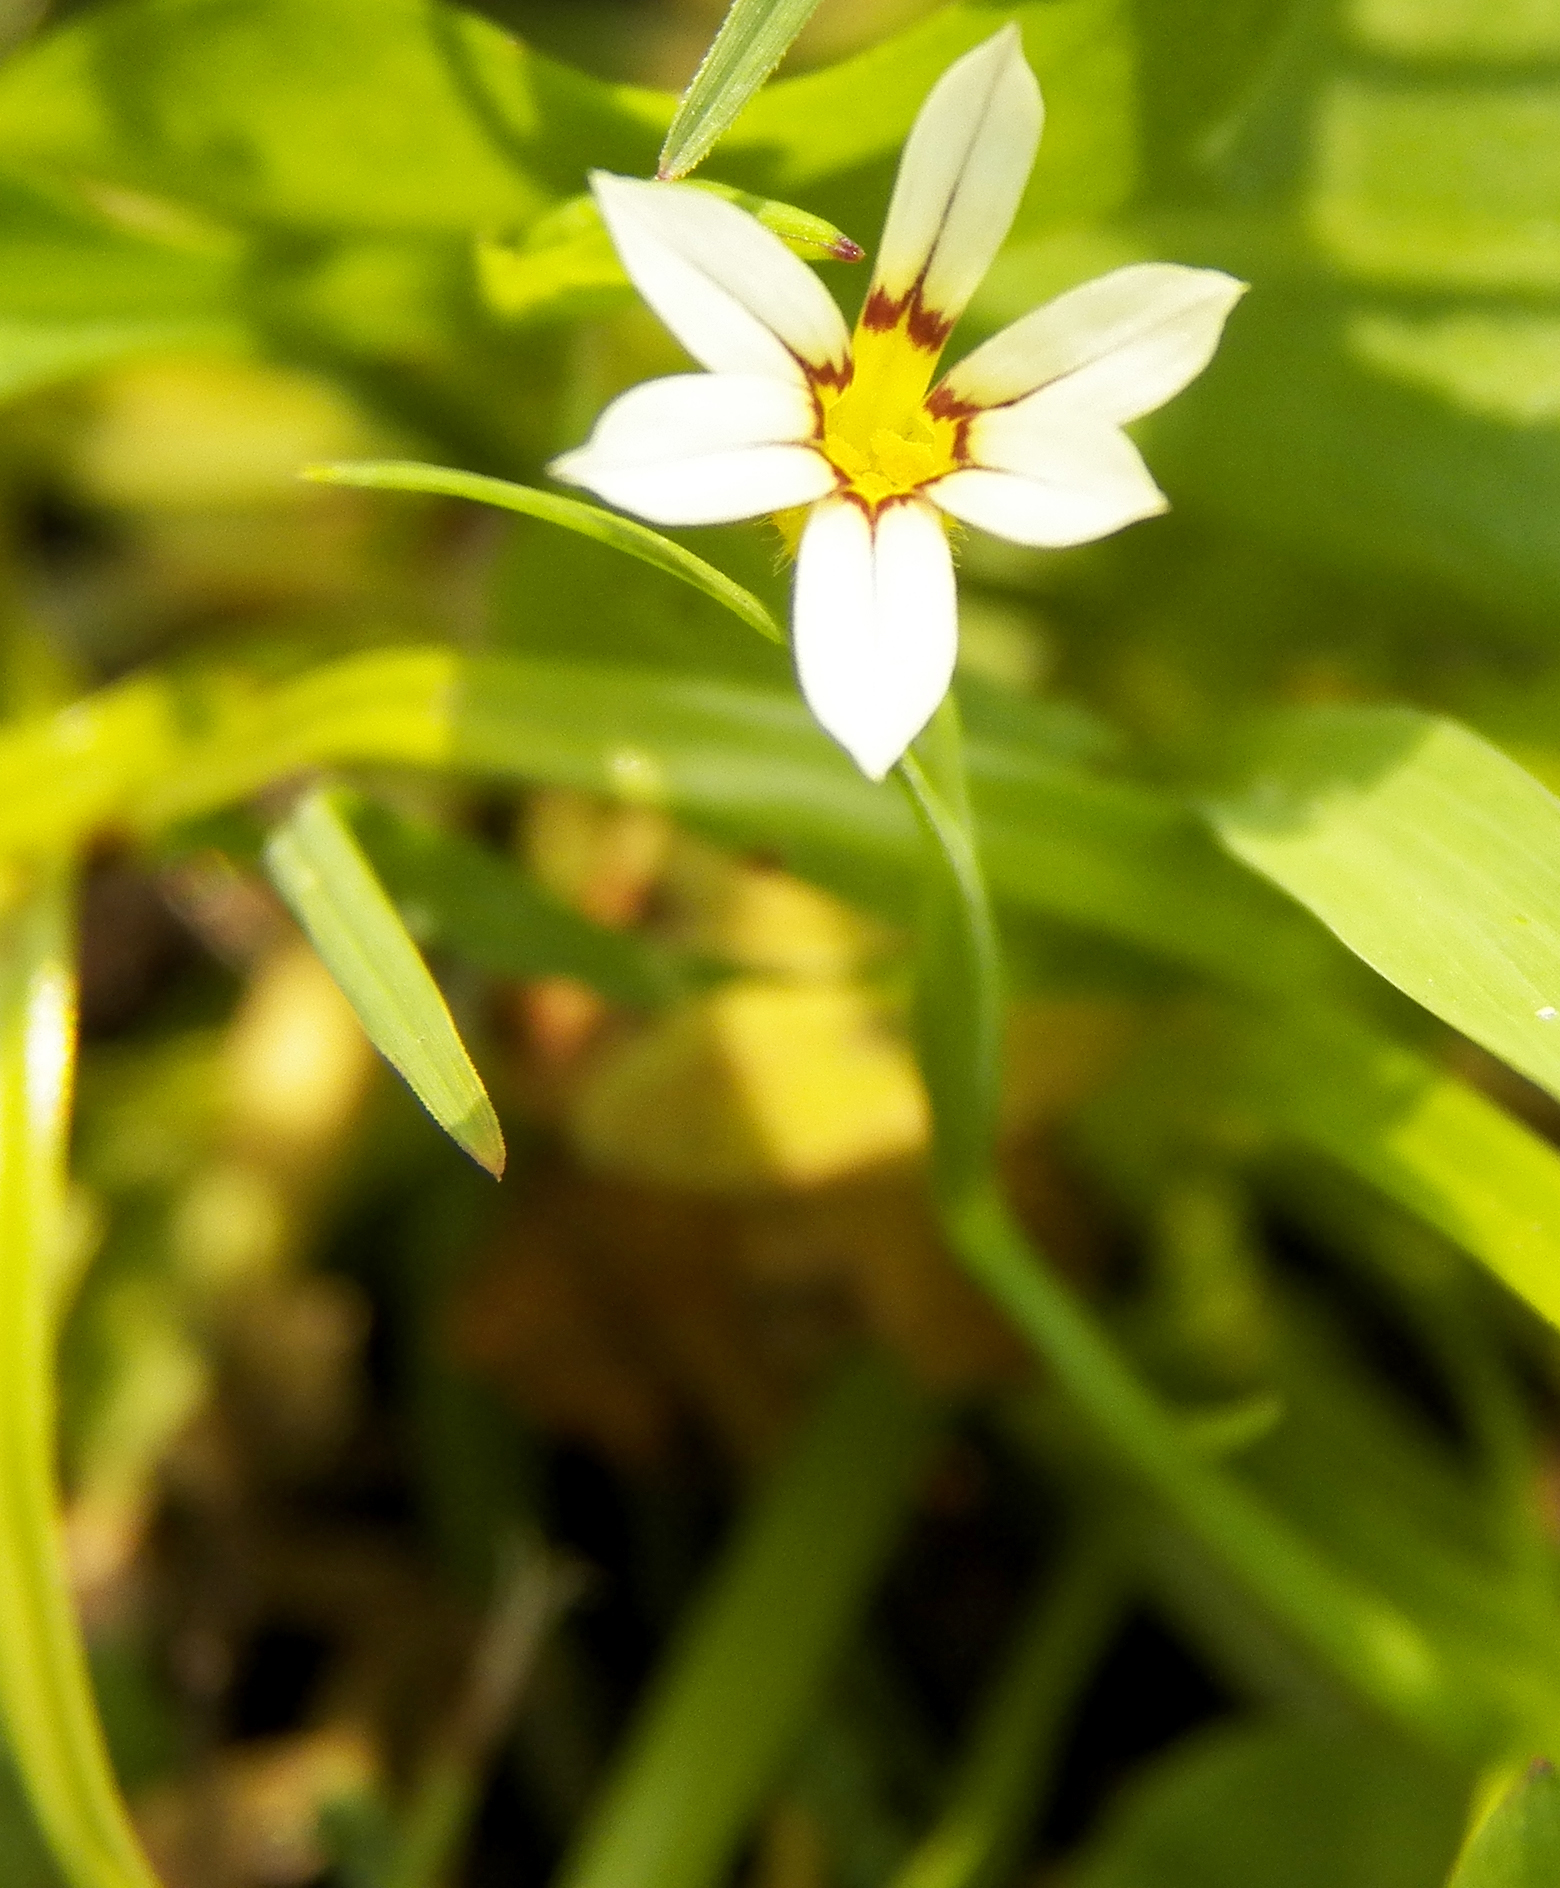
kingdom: Plantae
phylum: Tracheophyta
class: Liliopsida
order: Asparagales
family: Iridaceae
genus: Sisyrinchium
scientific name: Sisyrinchium micranthum
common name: Bermuda pigroot
